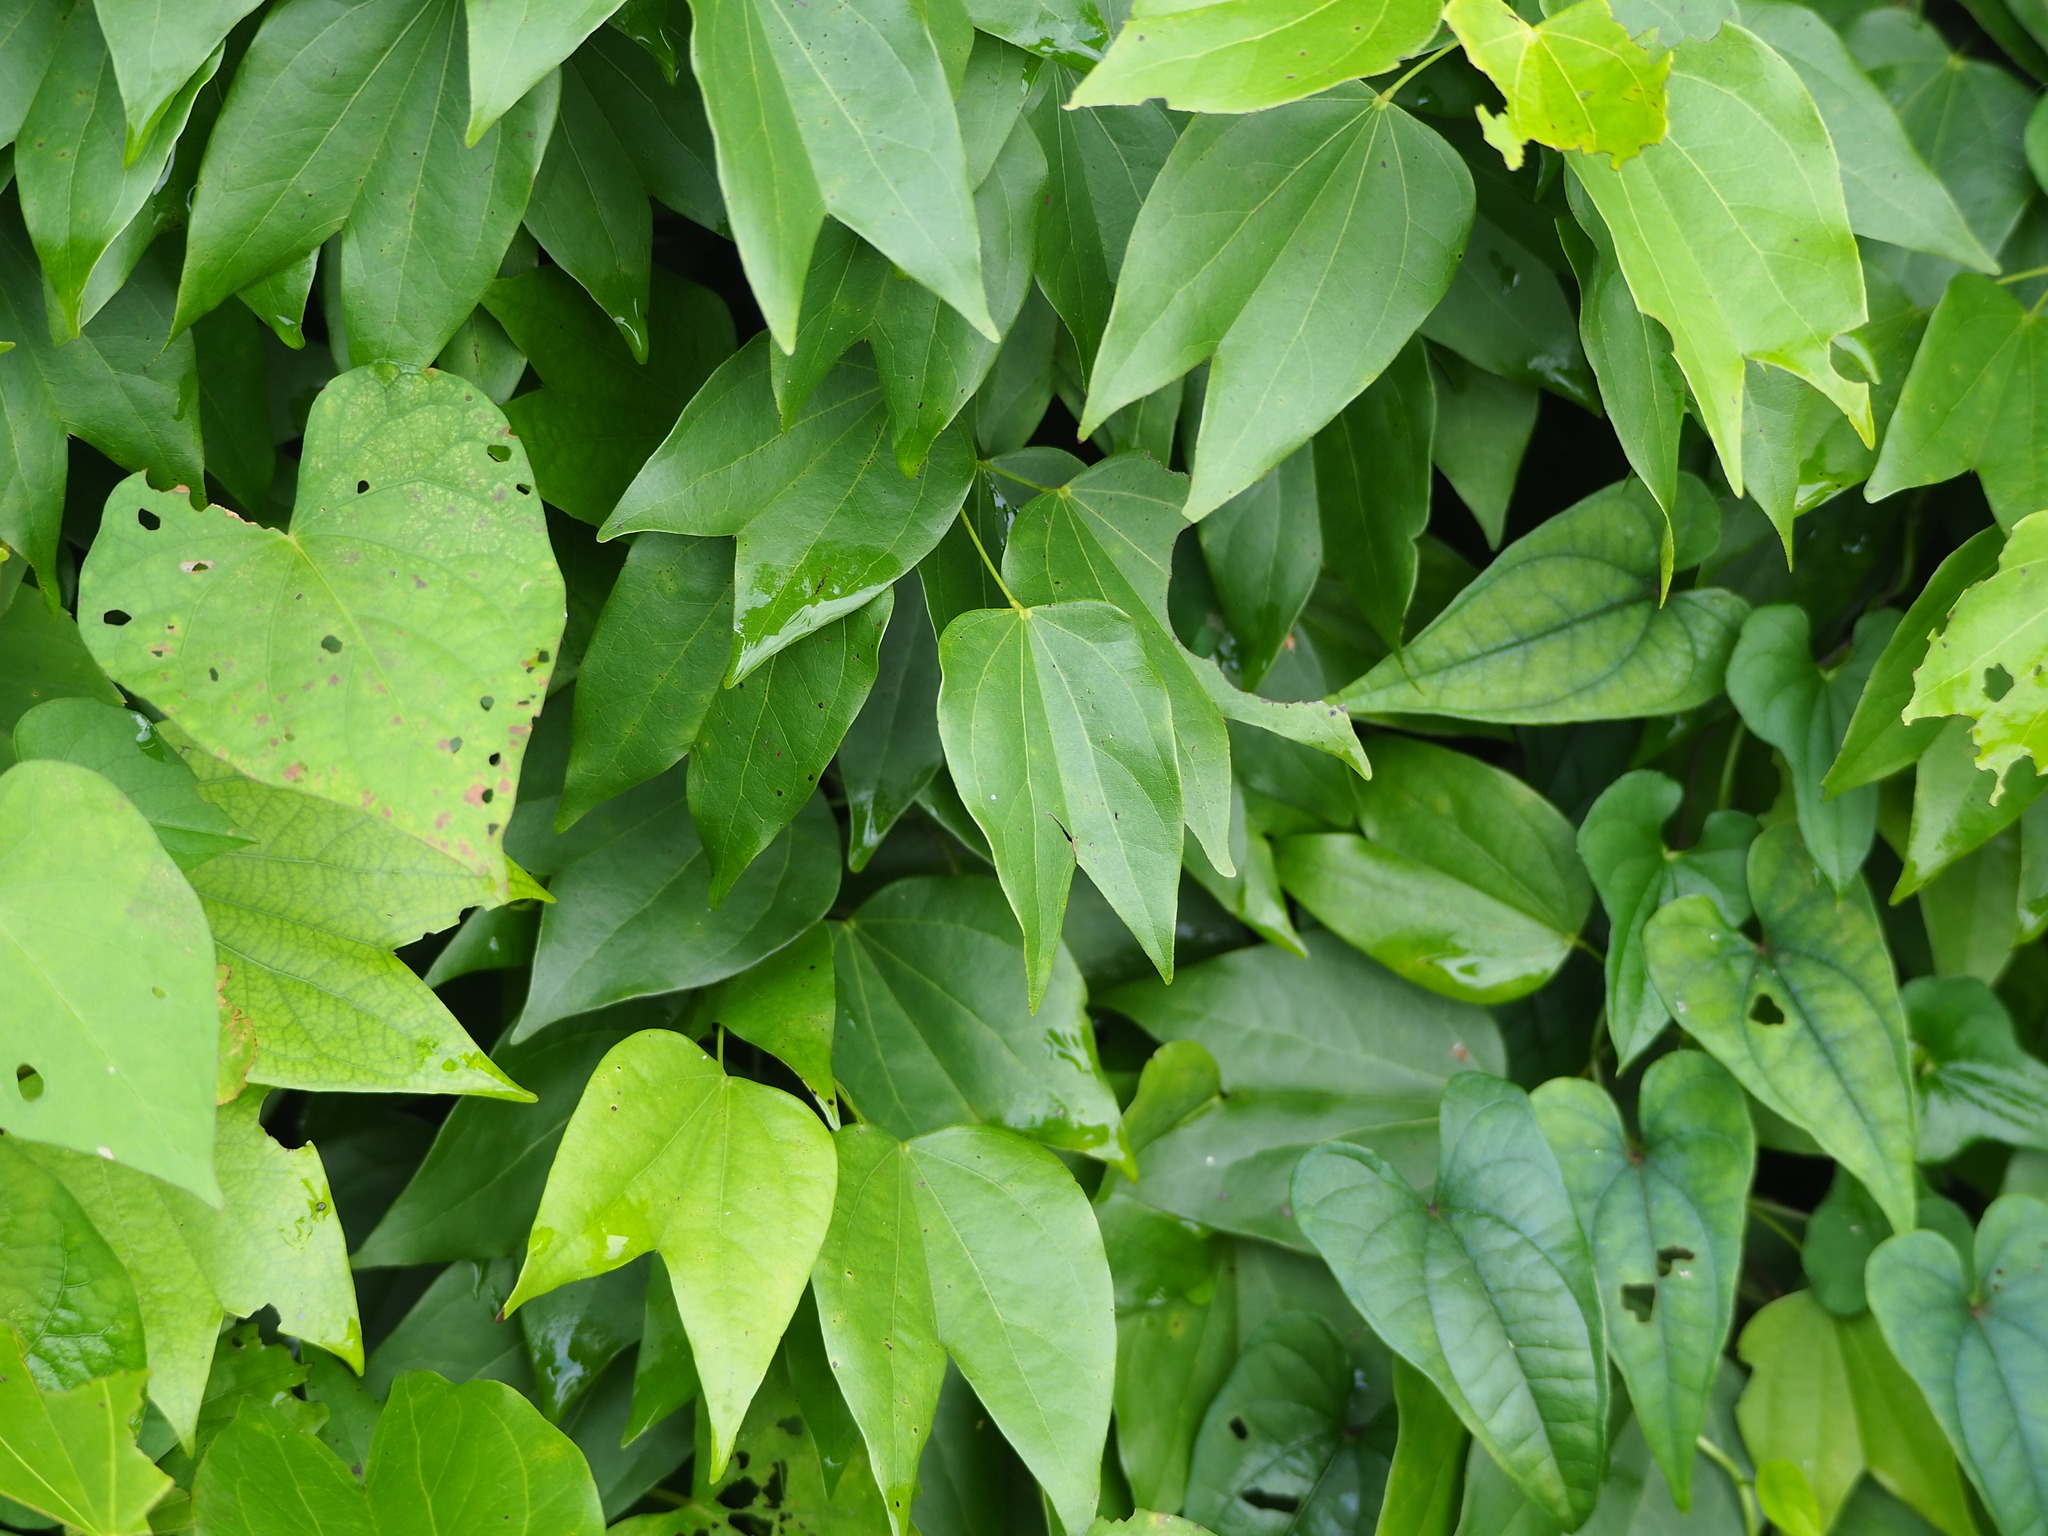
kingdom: Plantae
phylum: Tracheophyta
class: Magnoliopsida
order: Fabales
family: Fabaceae
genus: Phanera
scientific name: Phanera championii
